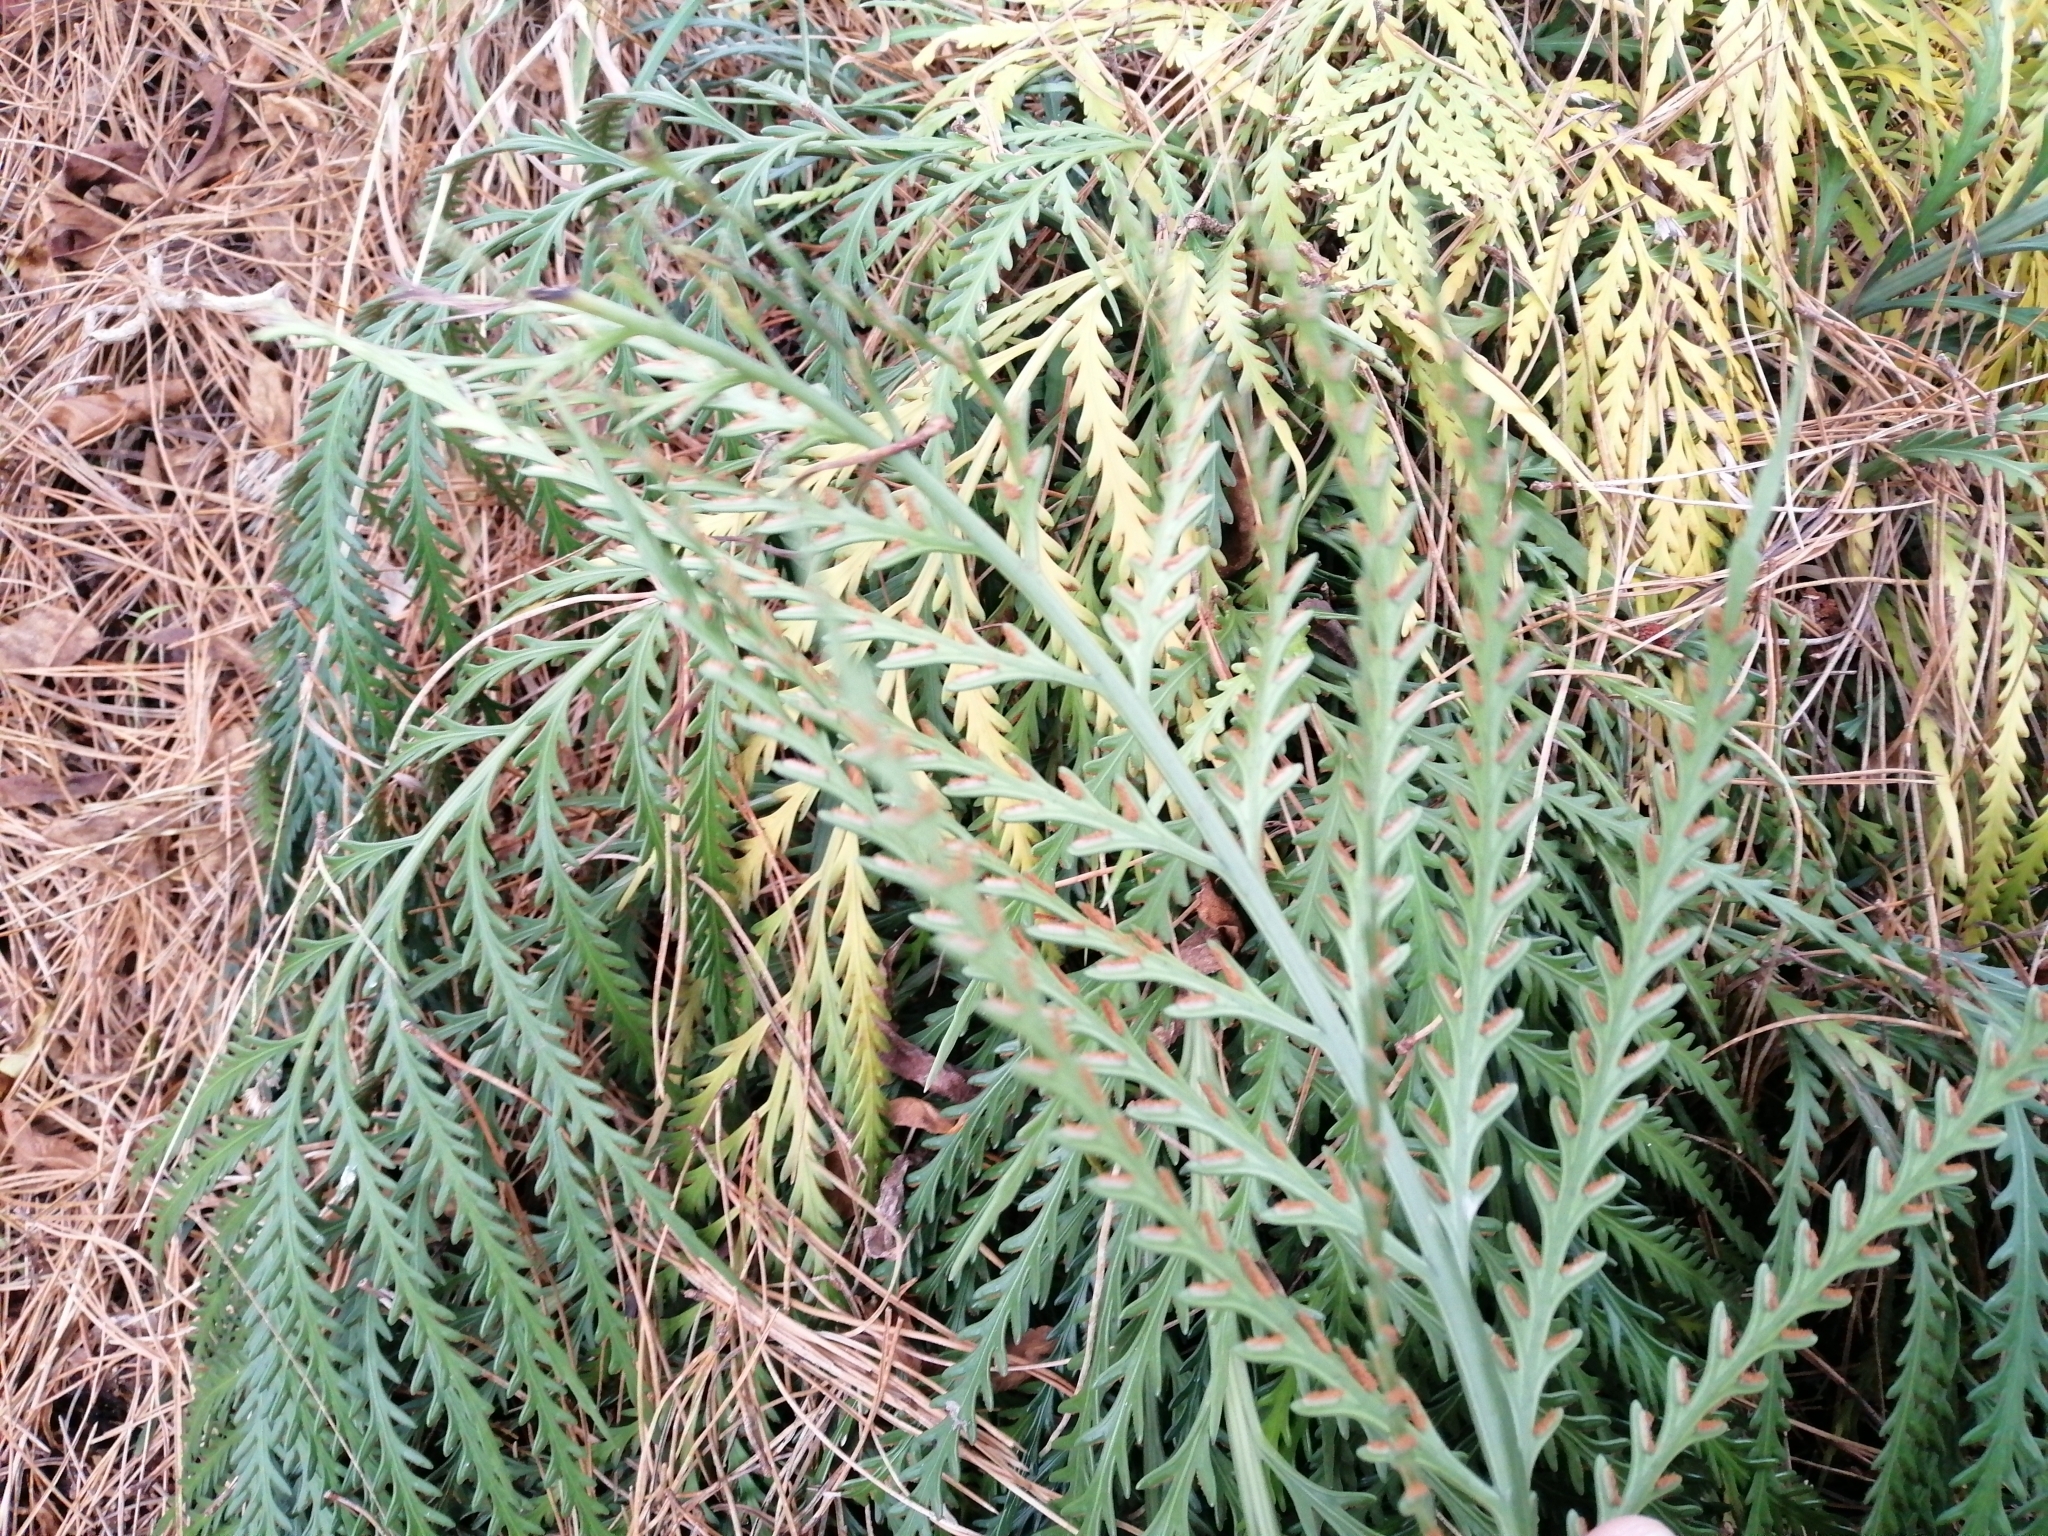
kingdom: Plantae
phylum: Tracheophyta
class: Polypodiopsida
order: Polypodiales
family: Aspleniaceae
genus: Asplenium
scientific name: Asplenium flaccidum
